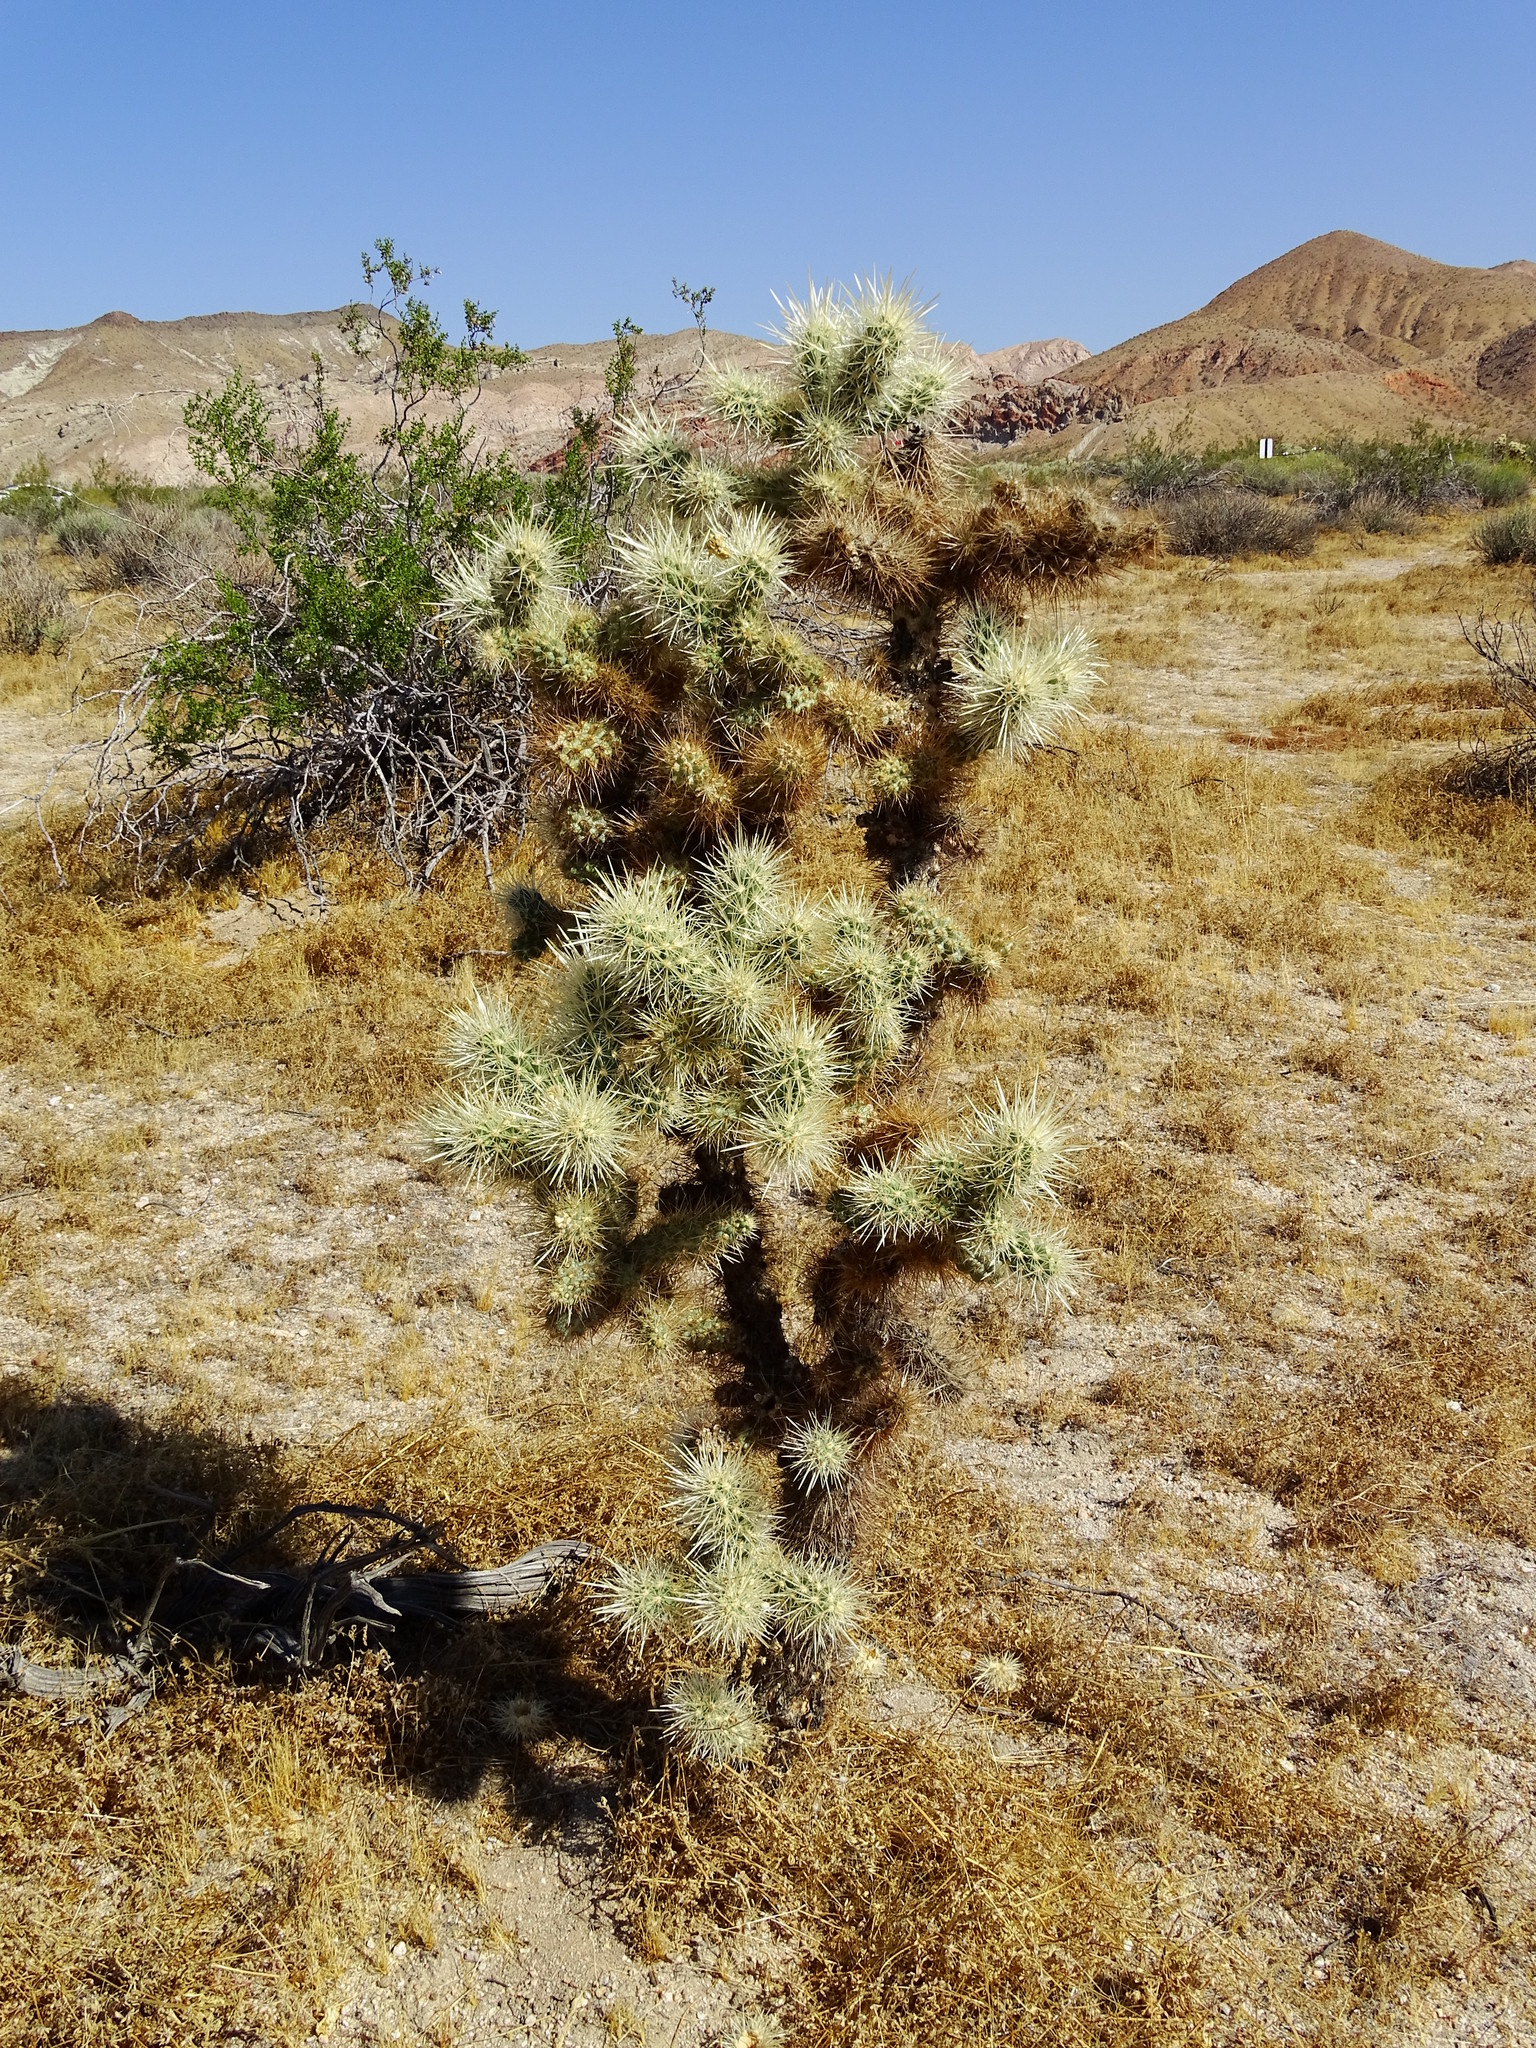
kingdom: Plantae
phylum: Tracheophyta
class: Magnoliopsida
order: Caryophyllales
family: Cactaceae
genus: Cylindropuntia
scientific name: Cylindropuntia echinocarpa
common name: Ground cholla
